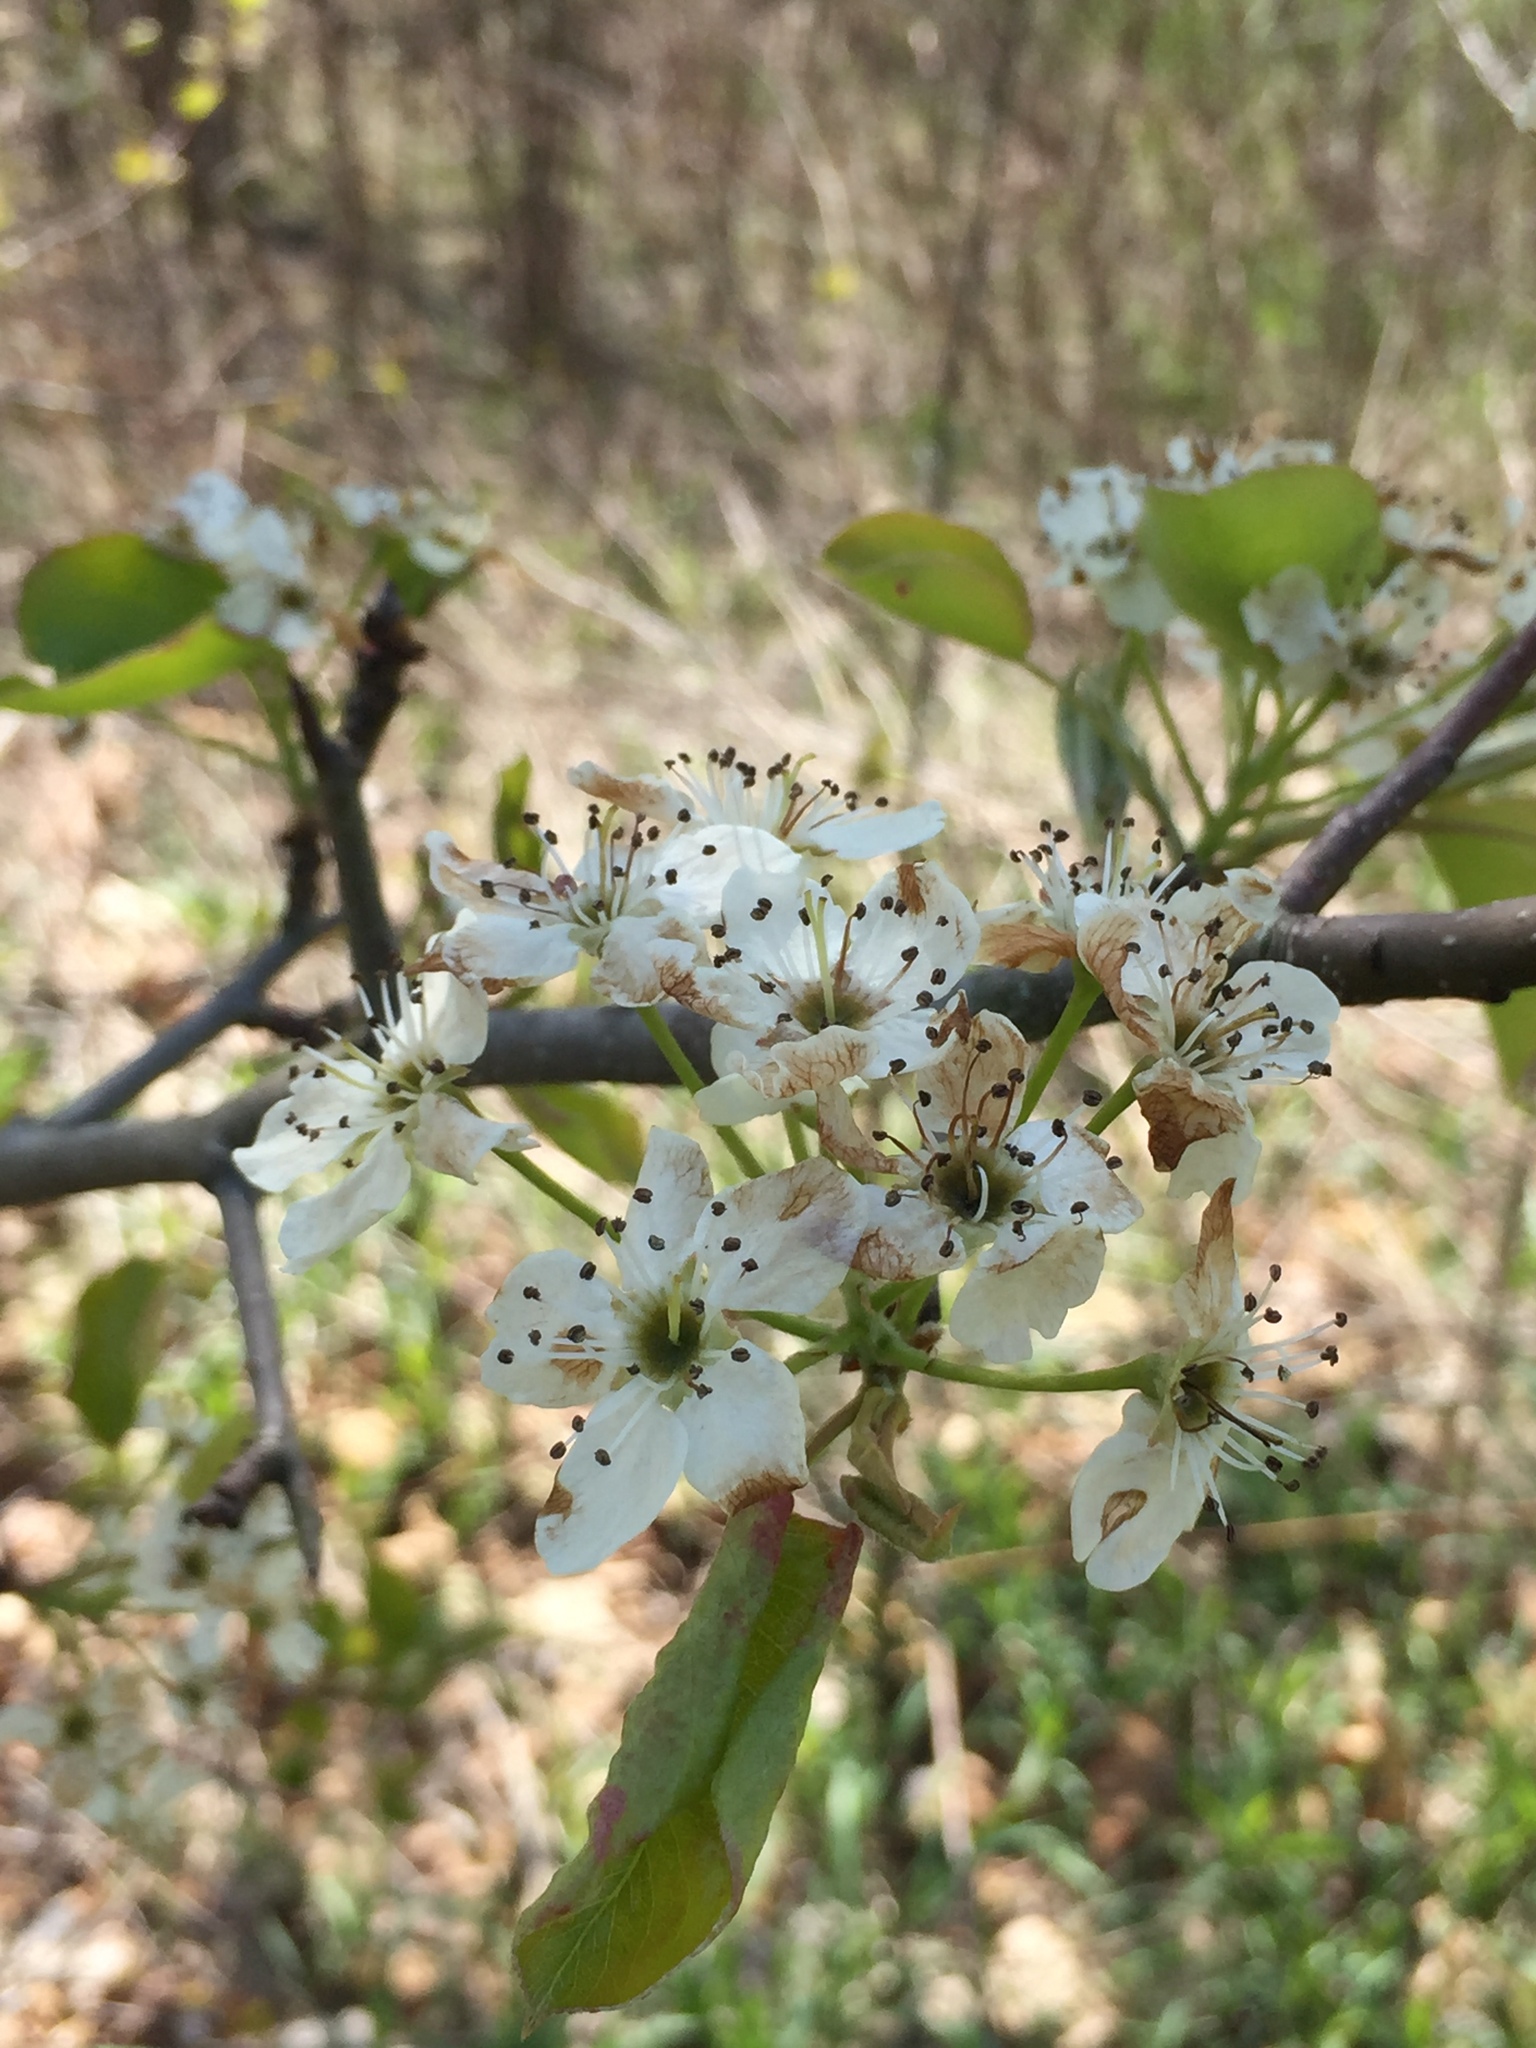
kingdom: Plantae
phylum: Tracheophyta
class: Magnoliopsida
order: Rosales
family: Rosaceae
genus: Pyrus
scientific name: Pyrus calleryana
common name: Callery pear
